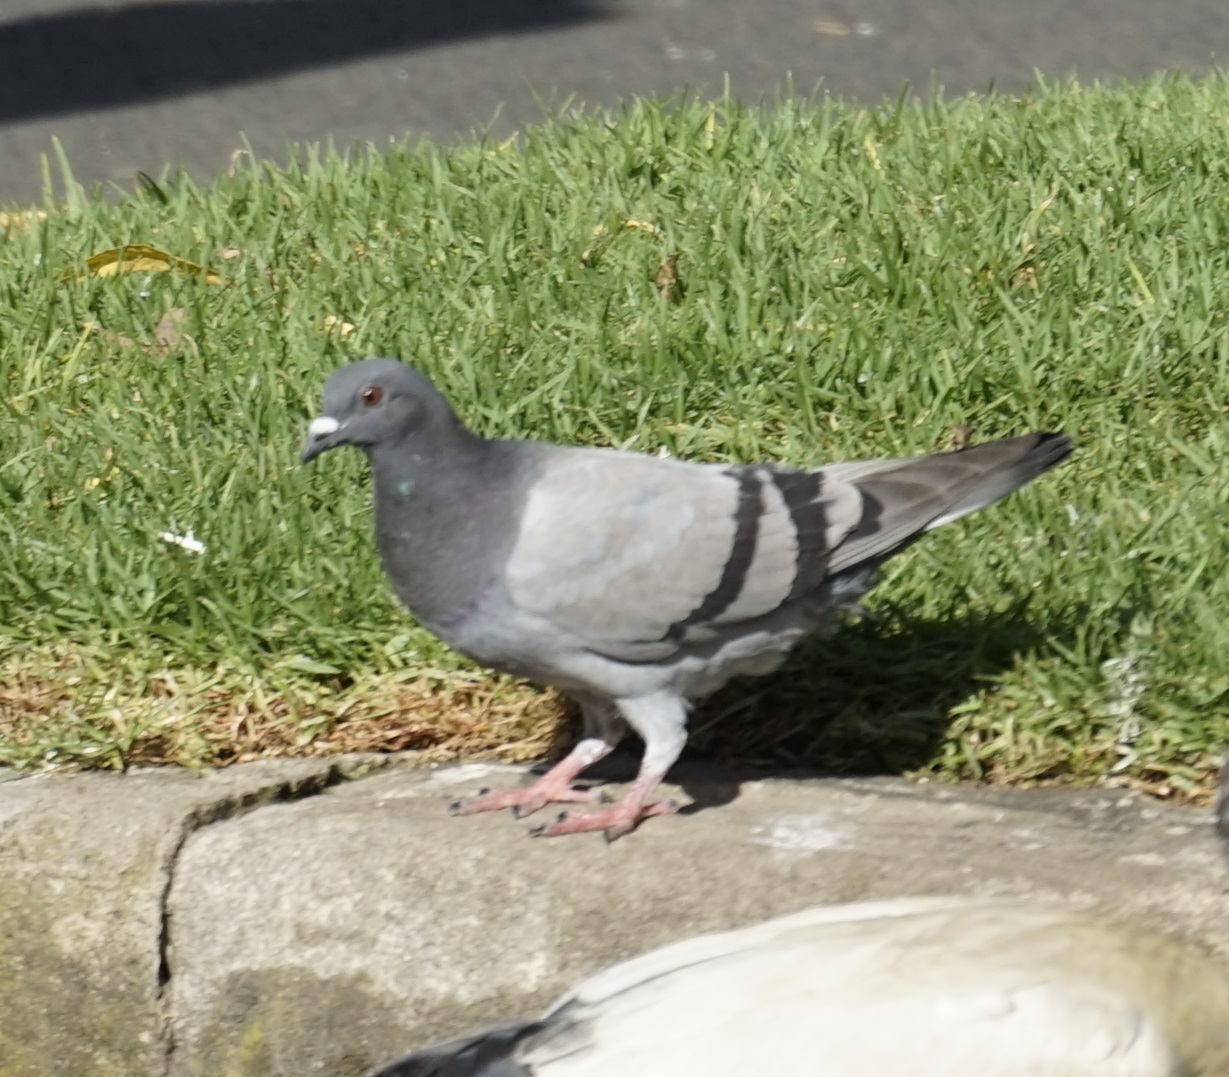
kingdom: Animalia
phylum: Chordata
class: Aves
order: Columbiformes
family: Columbidae
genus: Columba
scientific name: Columba livia
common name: Rock pigeon
